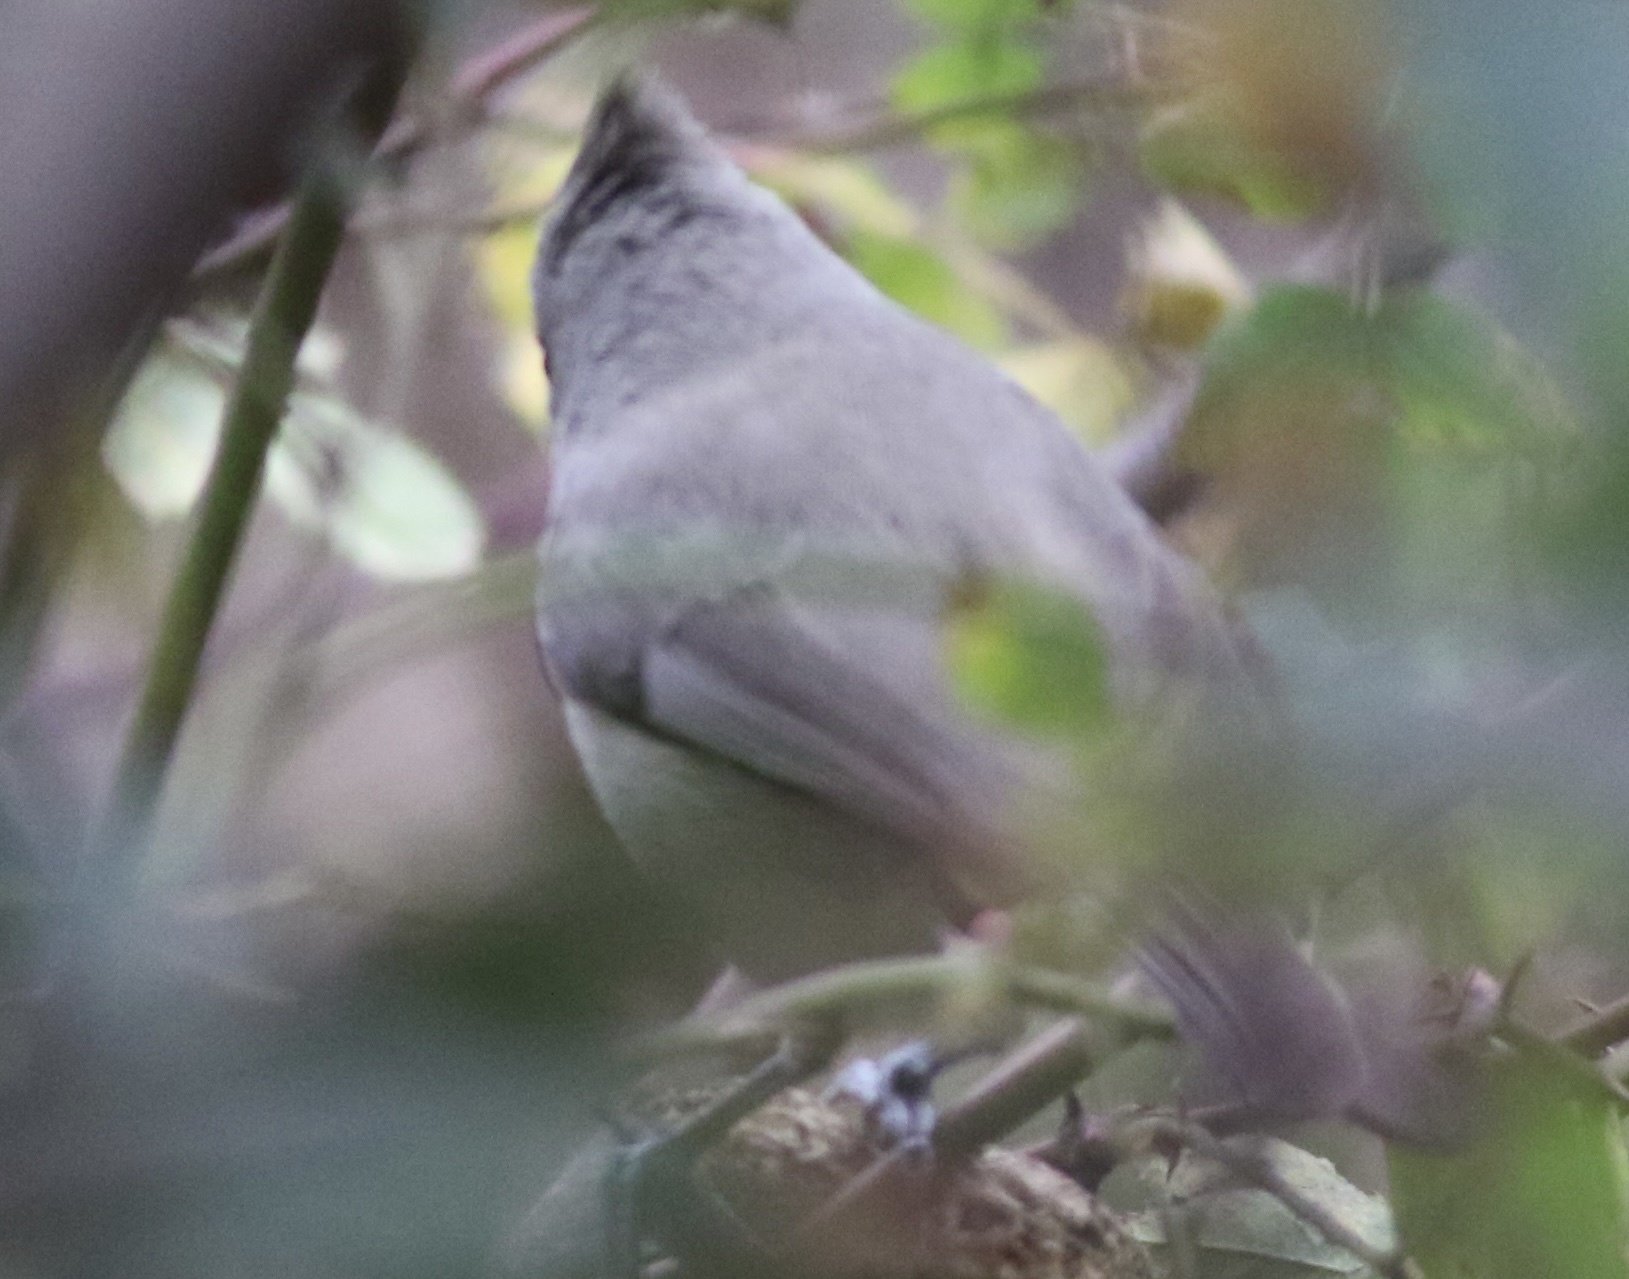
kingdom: Animalia
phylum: Chordata
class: Aves
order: Passeriformes
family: Paridae
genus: Baeolophus
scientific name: Baeolophus inornatus
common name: Oak titmouse
